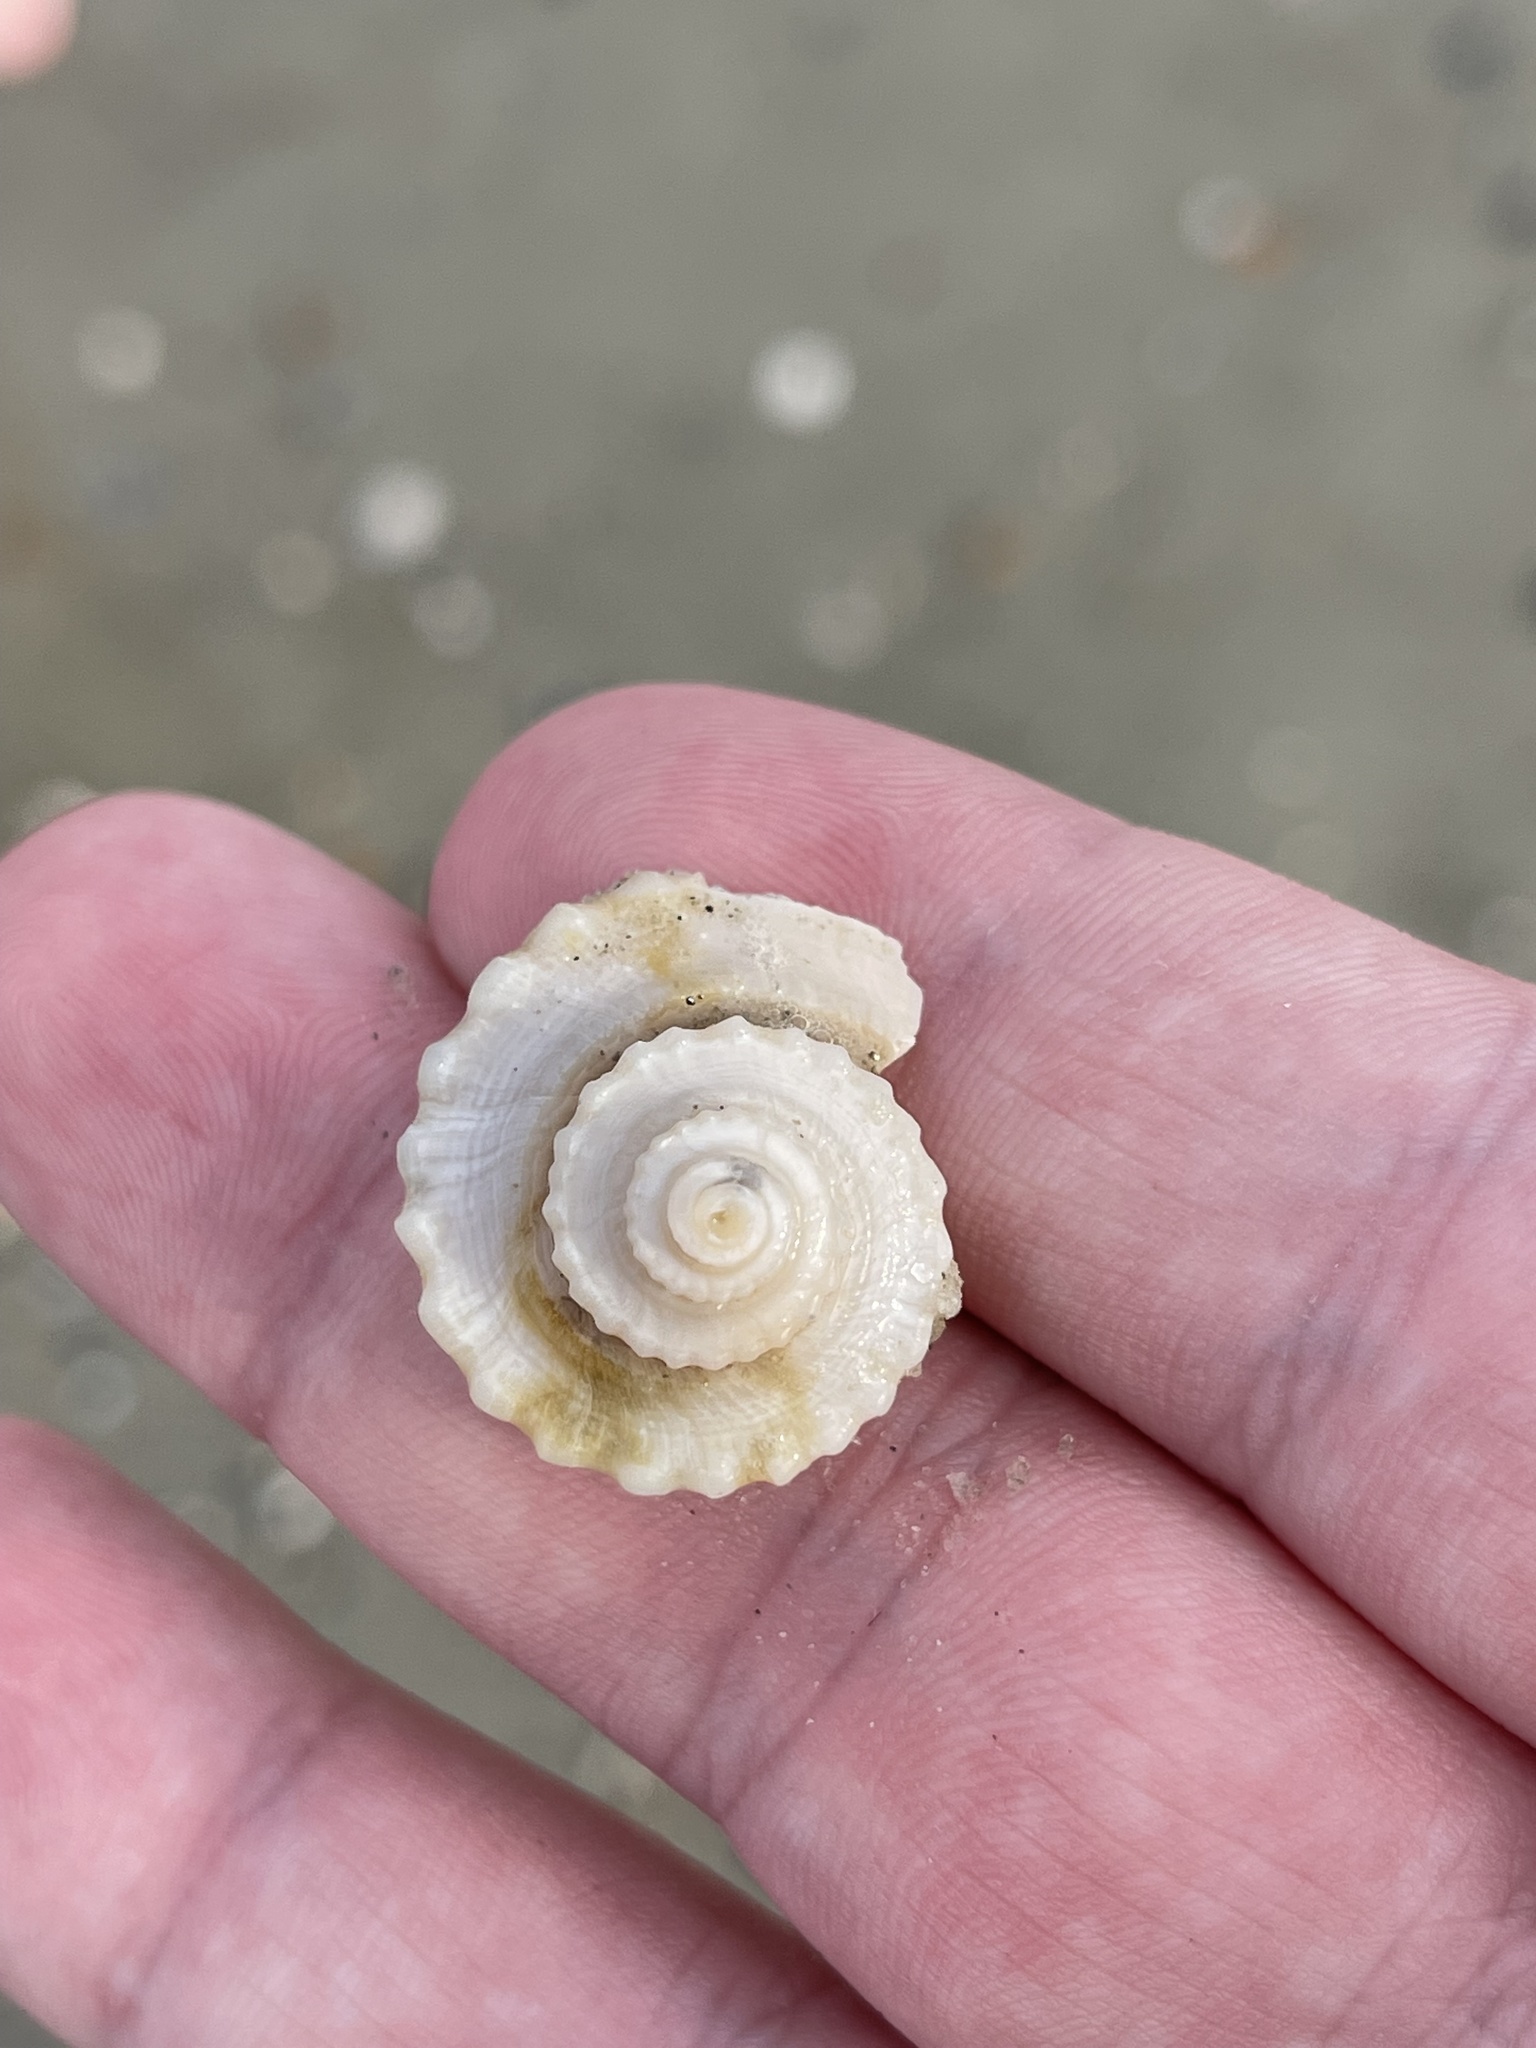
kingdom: Animalia
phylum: Mollusca
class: Gastropoda
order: Neogastropoda
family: Busyconidae
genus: Busycotypus
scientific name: Busycotypus canaliculatus
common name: Channeled whelk
